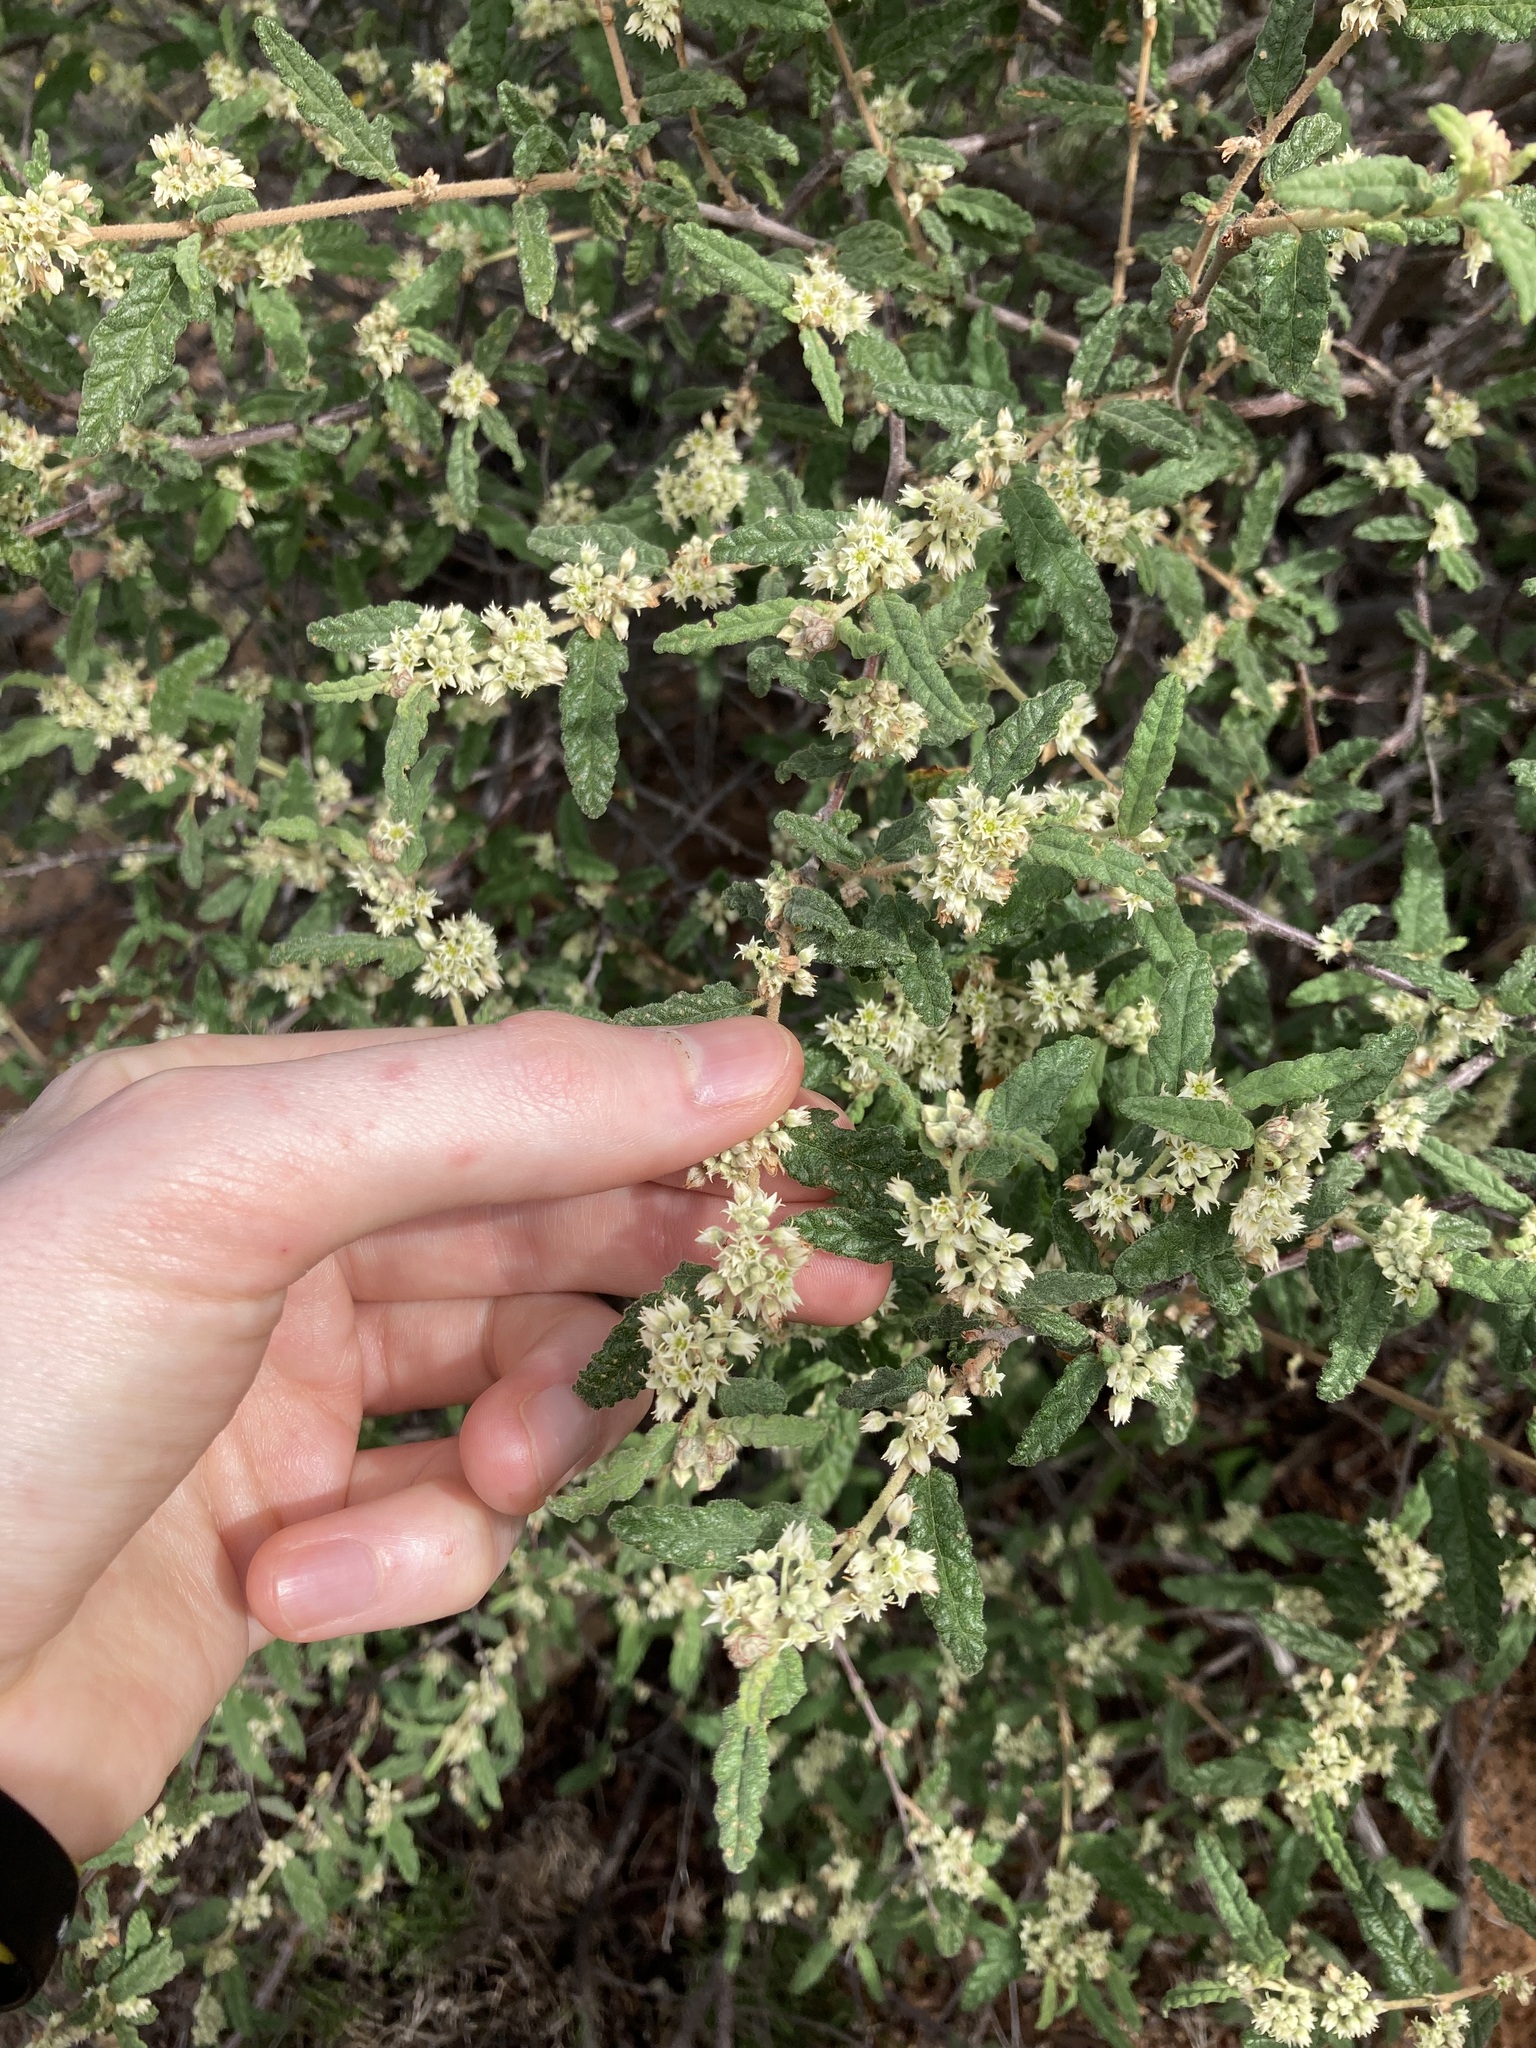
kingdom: Plantae
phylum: Tracheophyta
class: Magnoliopsida
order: Malvales
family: Malvaceae
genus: Commersonia
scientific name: Commersonia borealis
